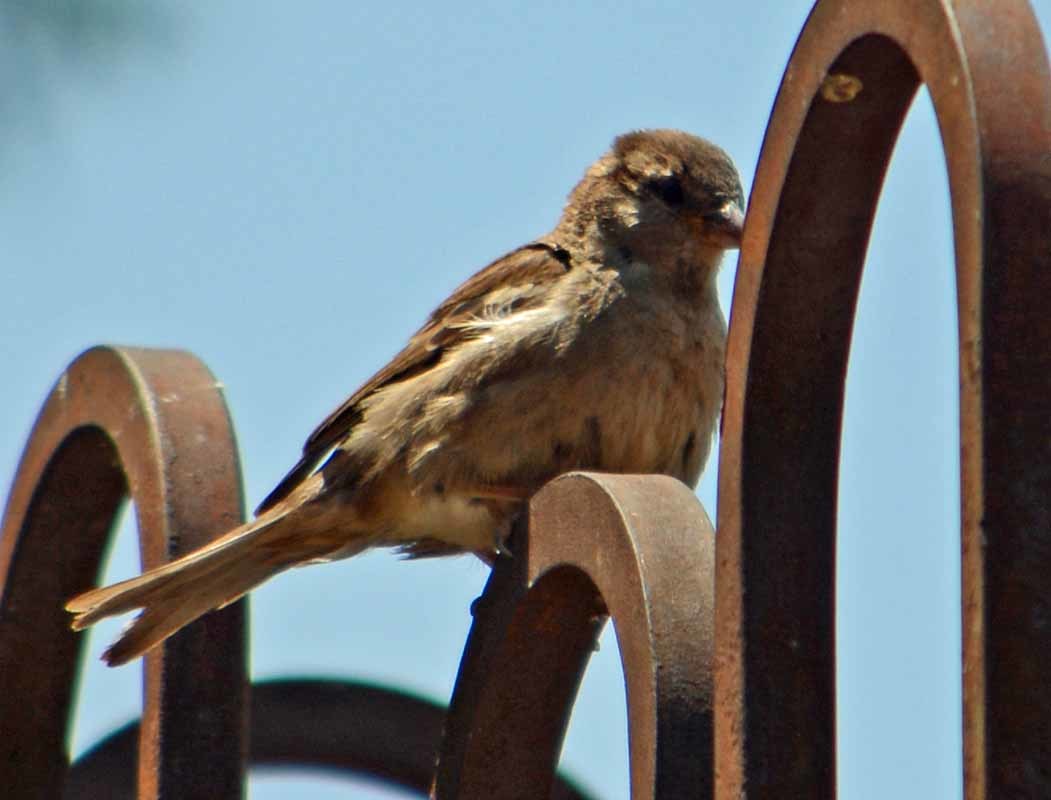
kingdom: Animalia
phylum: Chordata
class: Aves
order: Passeriformes
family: Passeridae
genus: Passer
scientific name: Passer domesticus
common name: House sparrow
